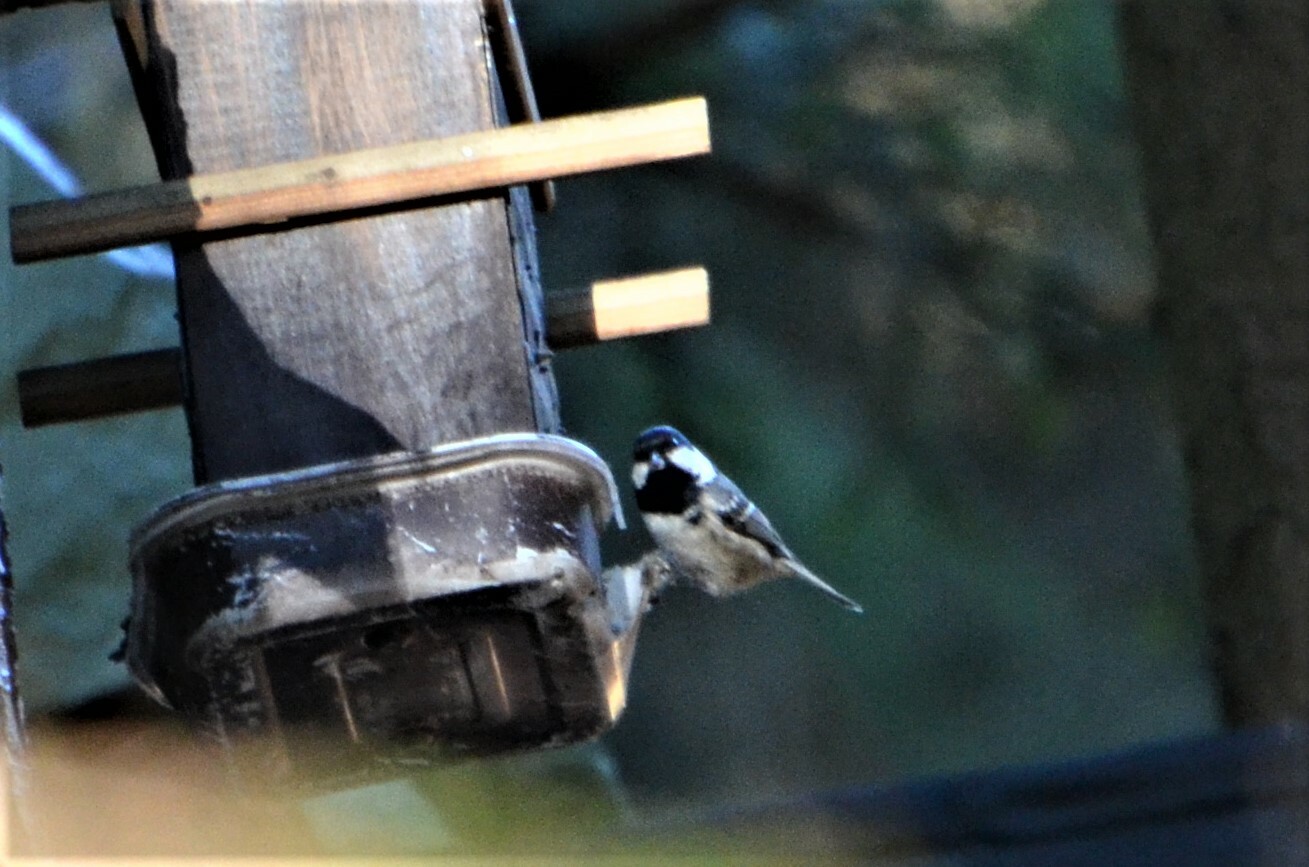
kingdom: Animalia
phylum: Chordata
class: Aves
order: Passeriformes
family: Paridae
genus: Periparus
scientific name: Periparus ater
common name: Coal tit
